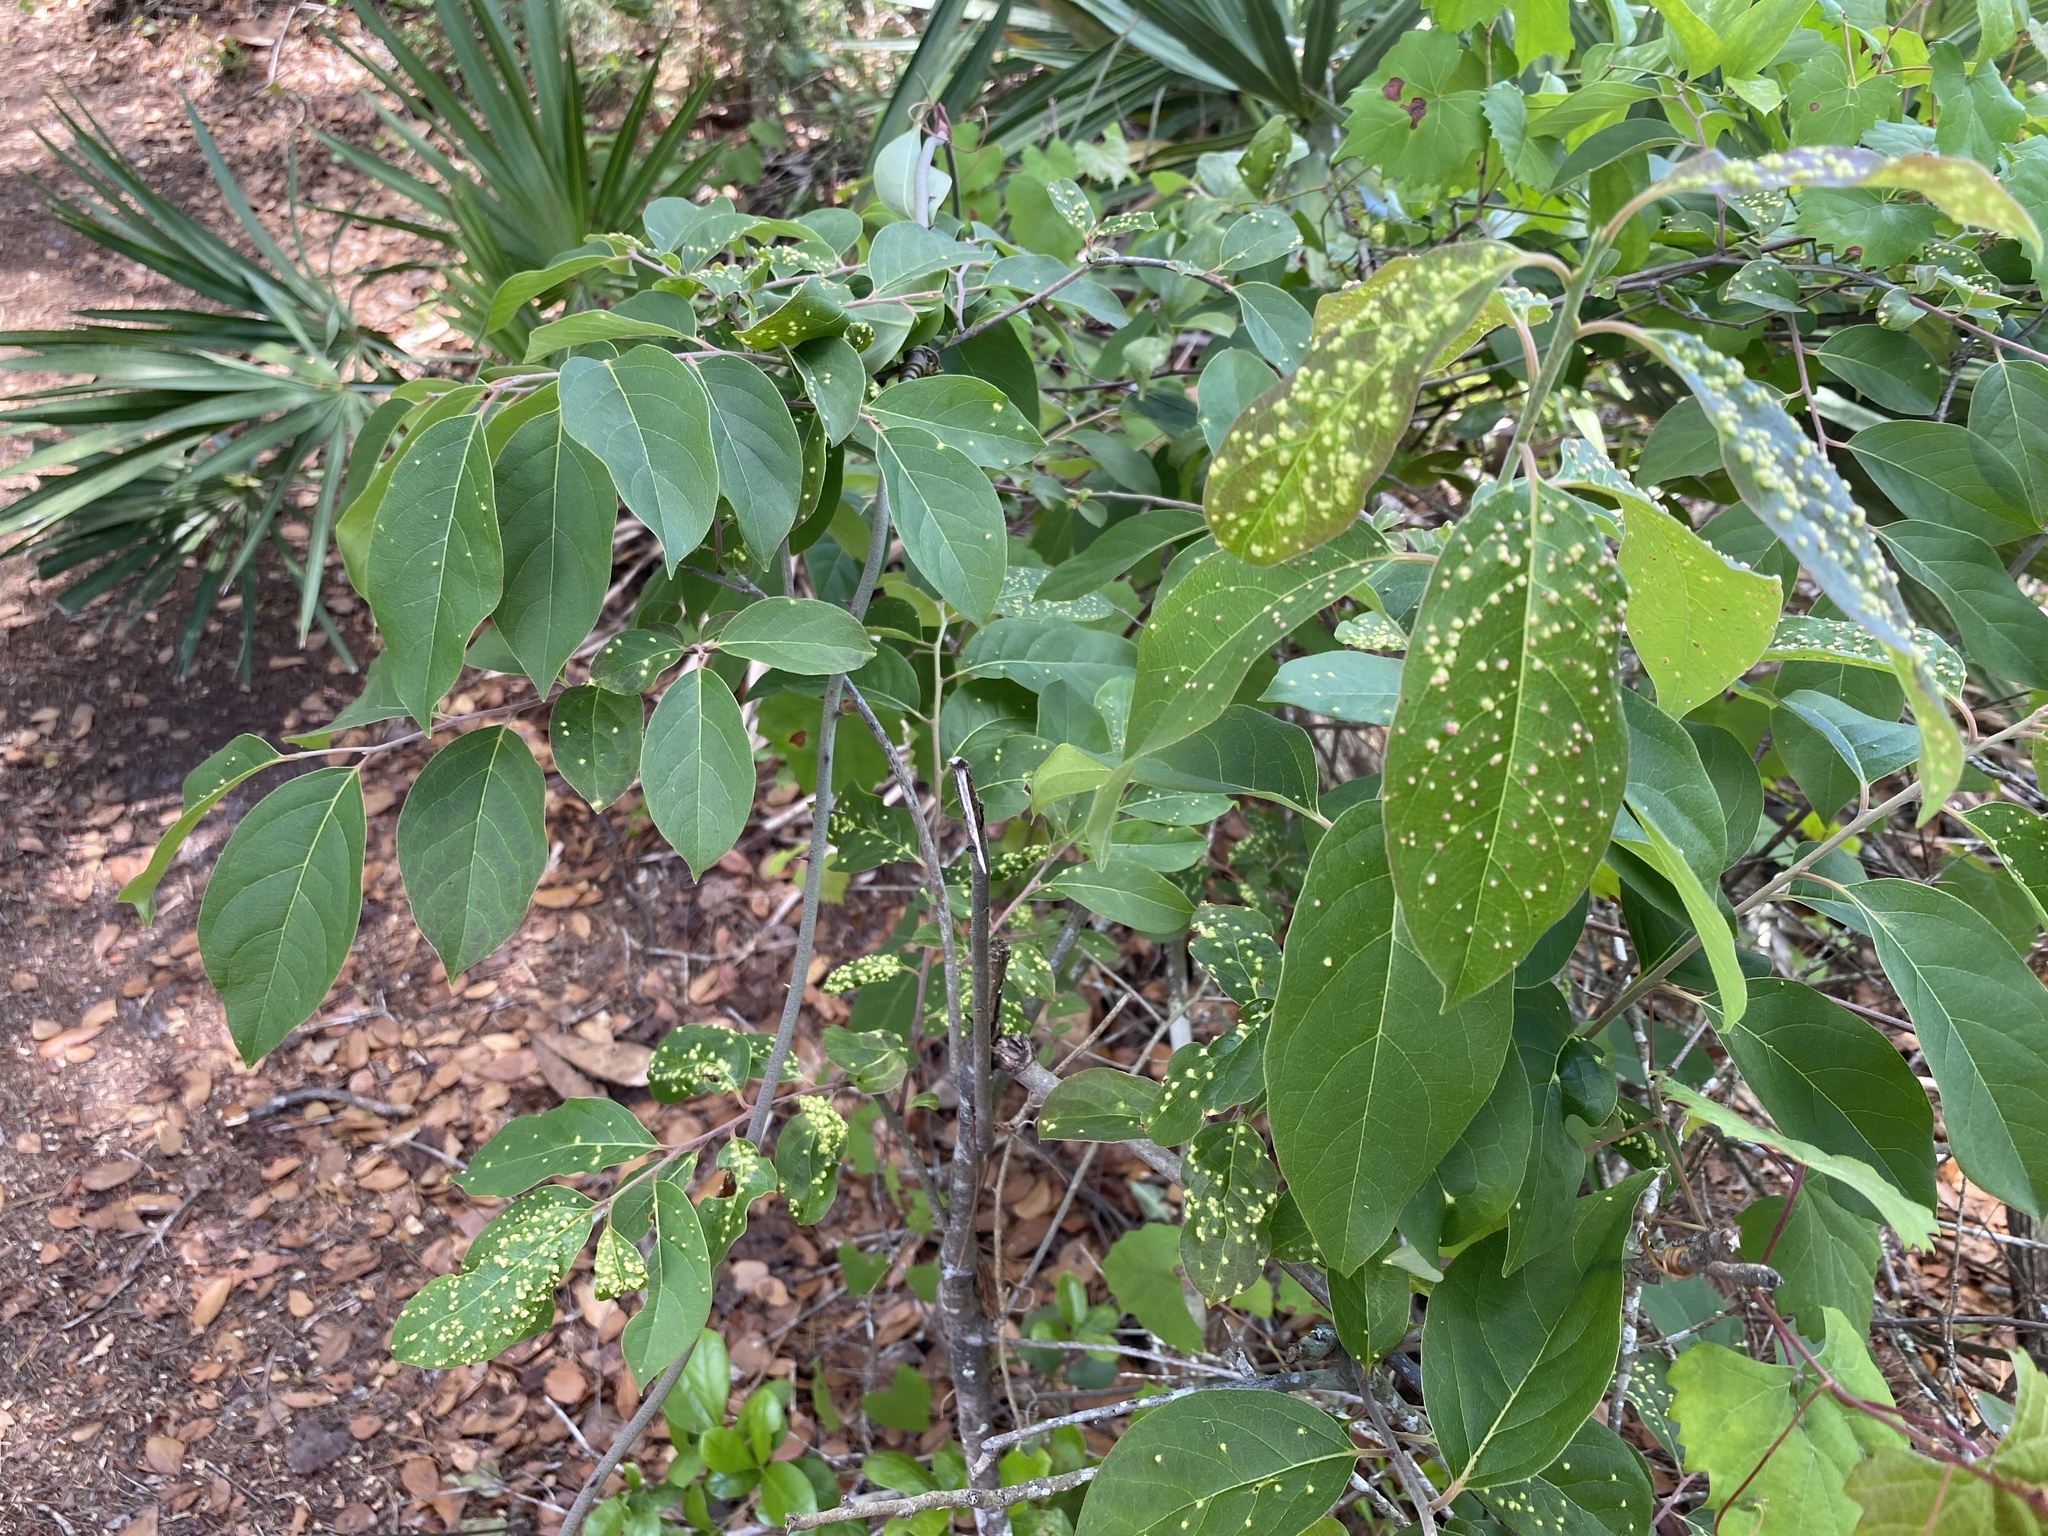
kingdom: Animalia
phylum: Arthropoda
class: Arachnida
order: Trombidiformes
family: Eriophyidae
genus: Aceria
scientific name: Aceria
